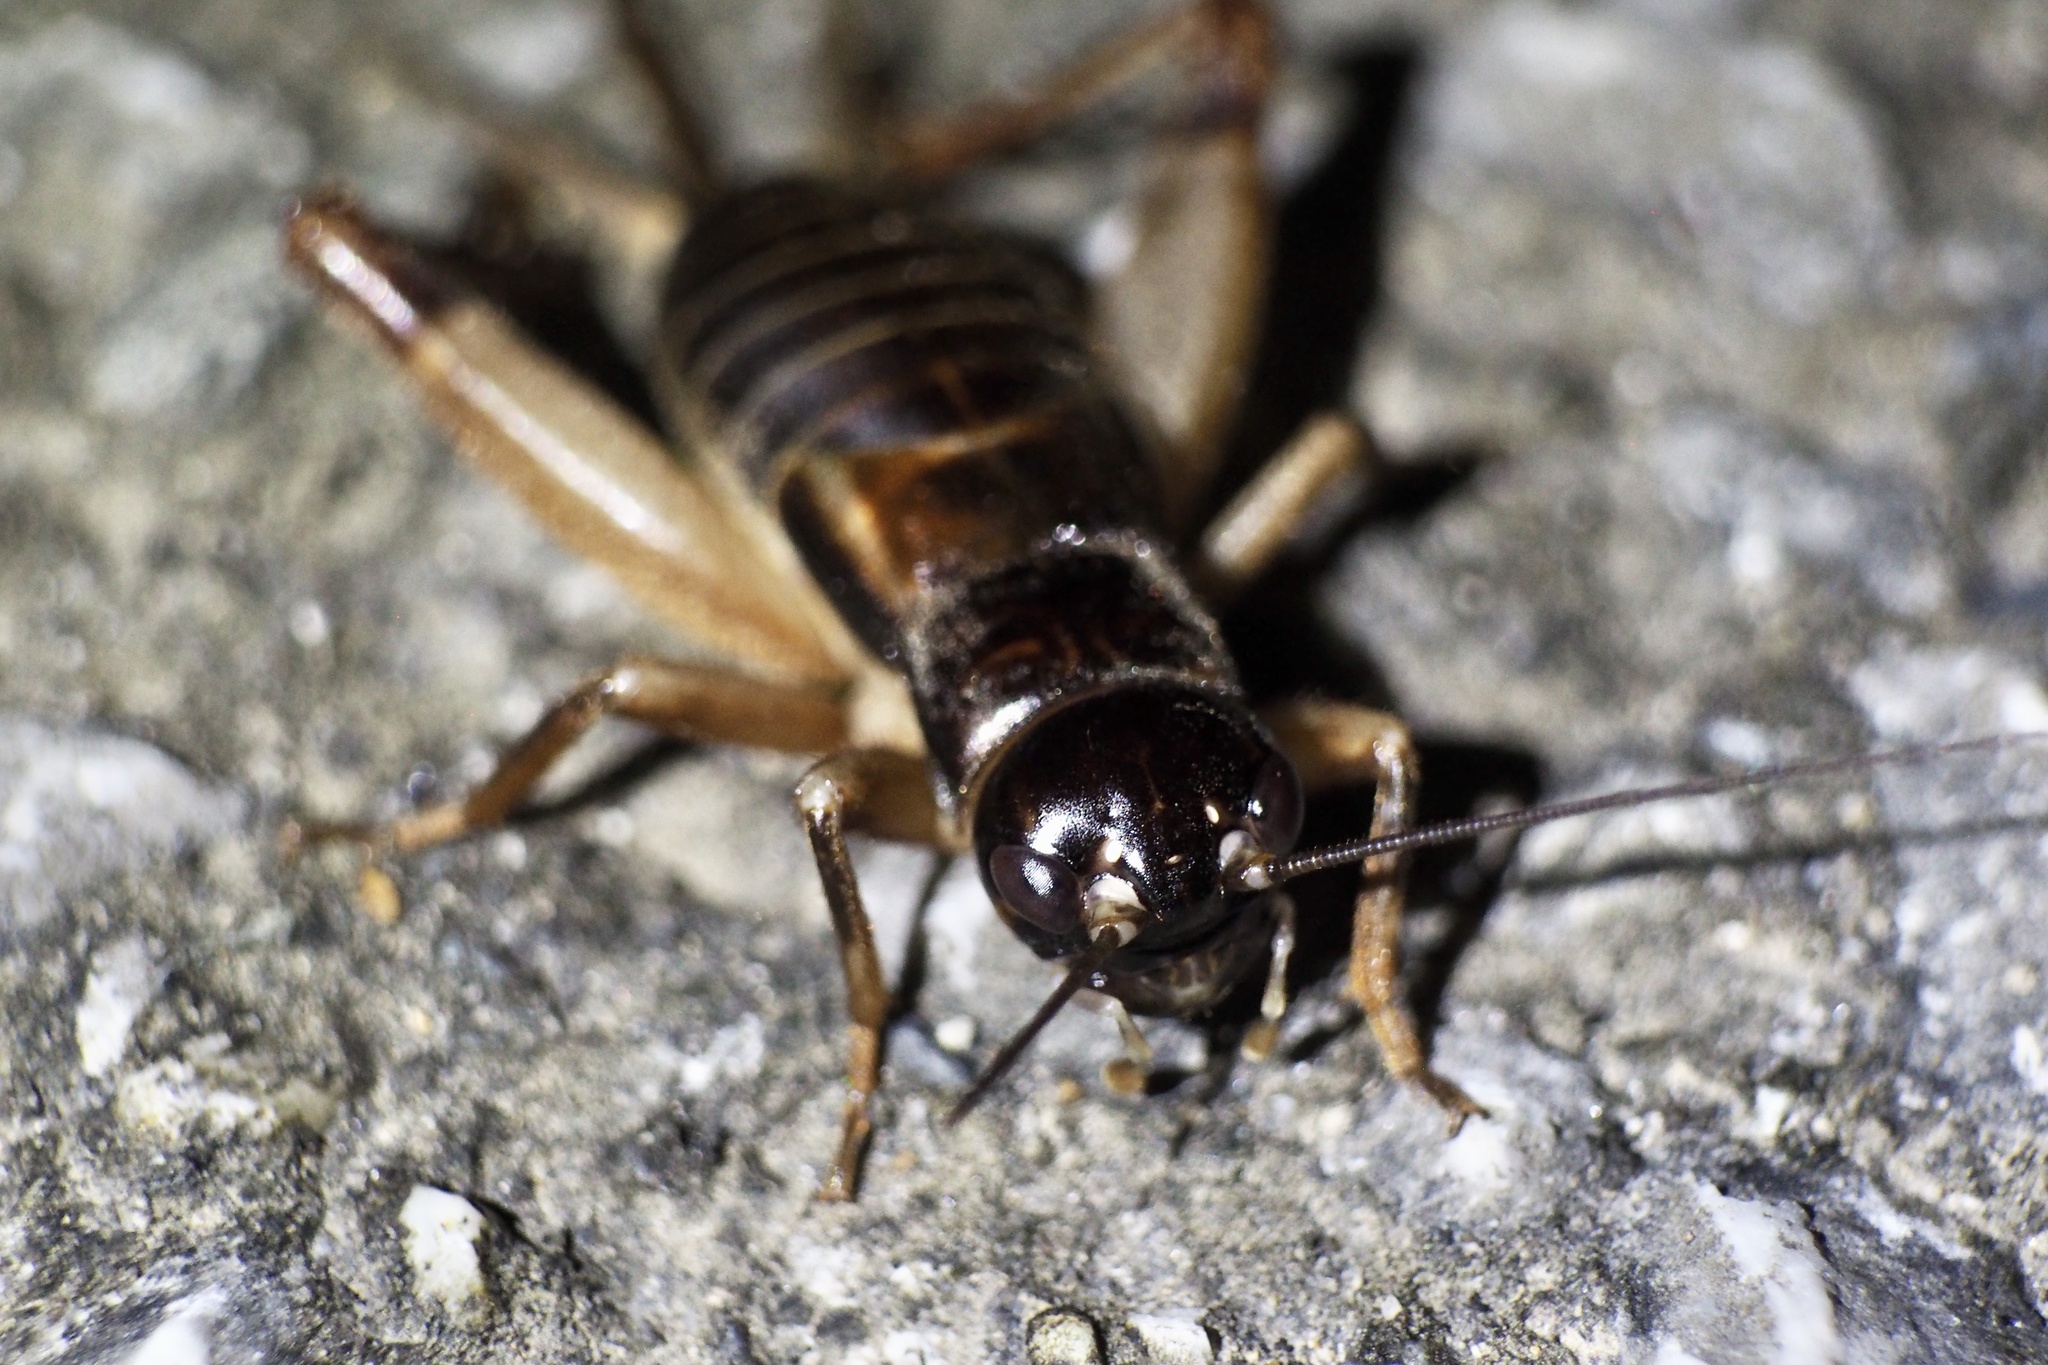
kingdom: Animalia
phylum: Arthropoda
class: Insecta
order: Orthoptera
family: Gryllidae
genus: Duolandrevus
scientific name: Duolandrevus ivani
